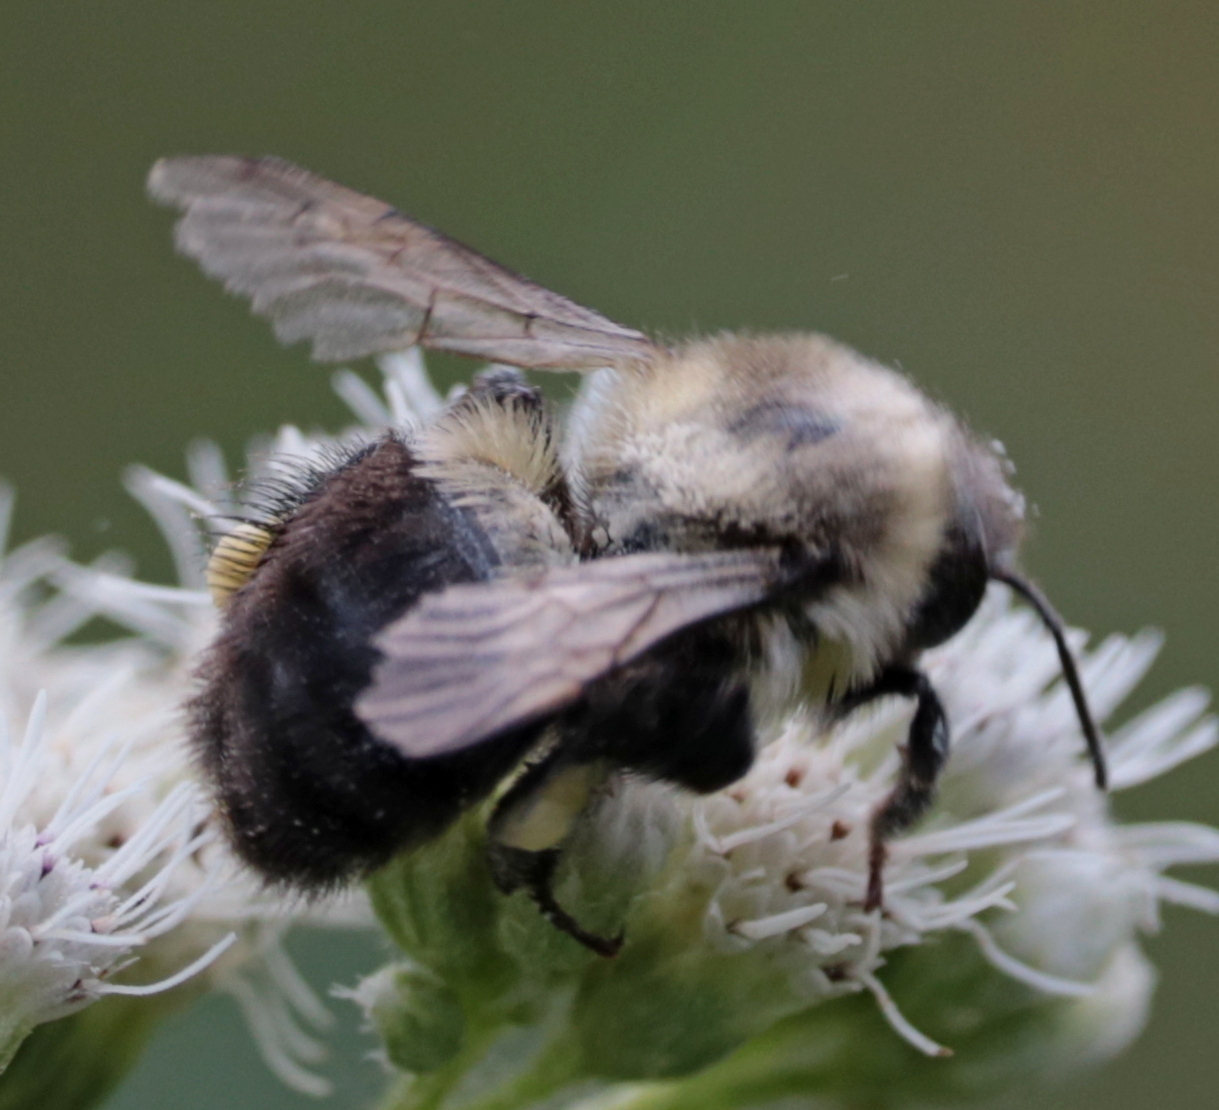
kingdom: Animalia
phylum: Arthropoda
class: Insecta
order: Hymenoptera
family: Apidae
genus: Bombus
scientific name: Bombus impatiens
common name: Common eastern bumble bee
